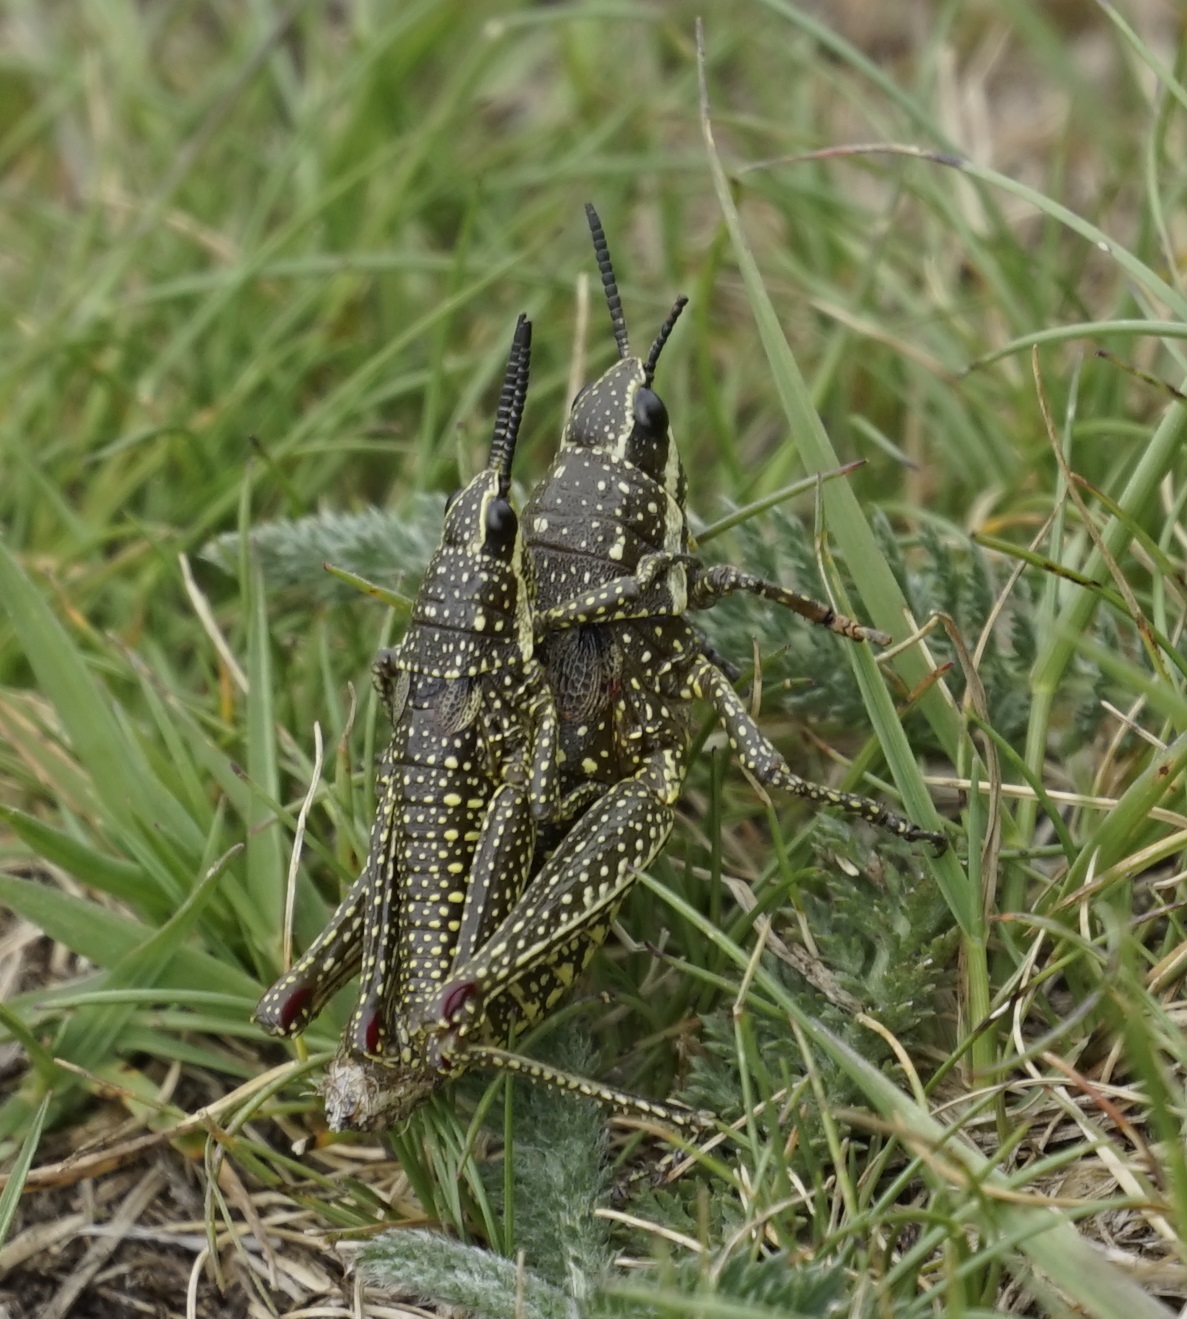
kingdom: Animalia
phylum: Arthropoda
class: Insecta
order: Orthoptera
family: Pyrgomorphidae
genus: Monistria
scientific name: Monistria concinna
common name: Southern pyrgomorph
